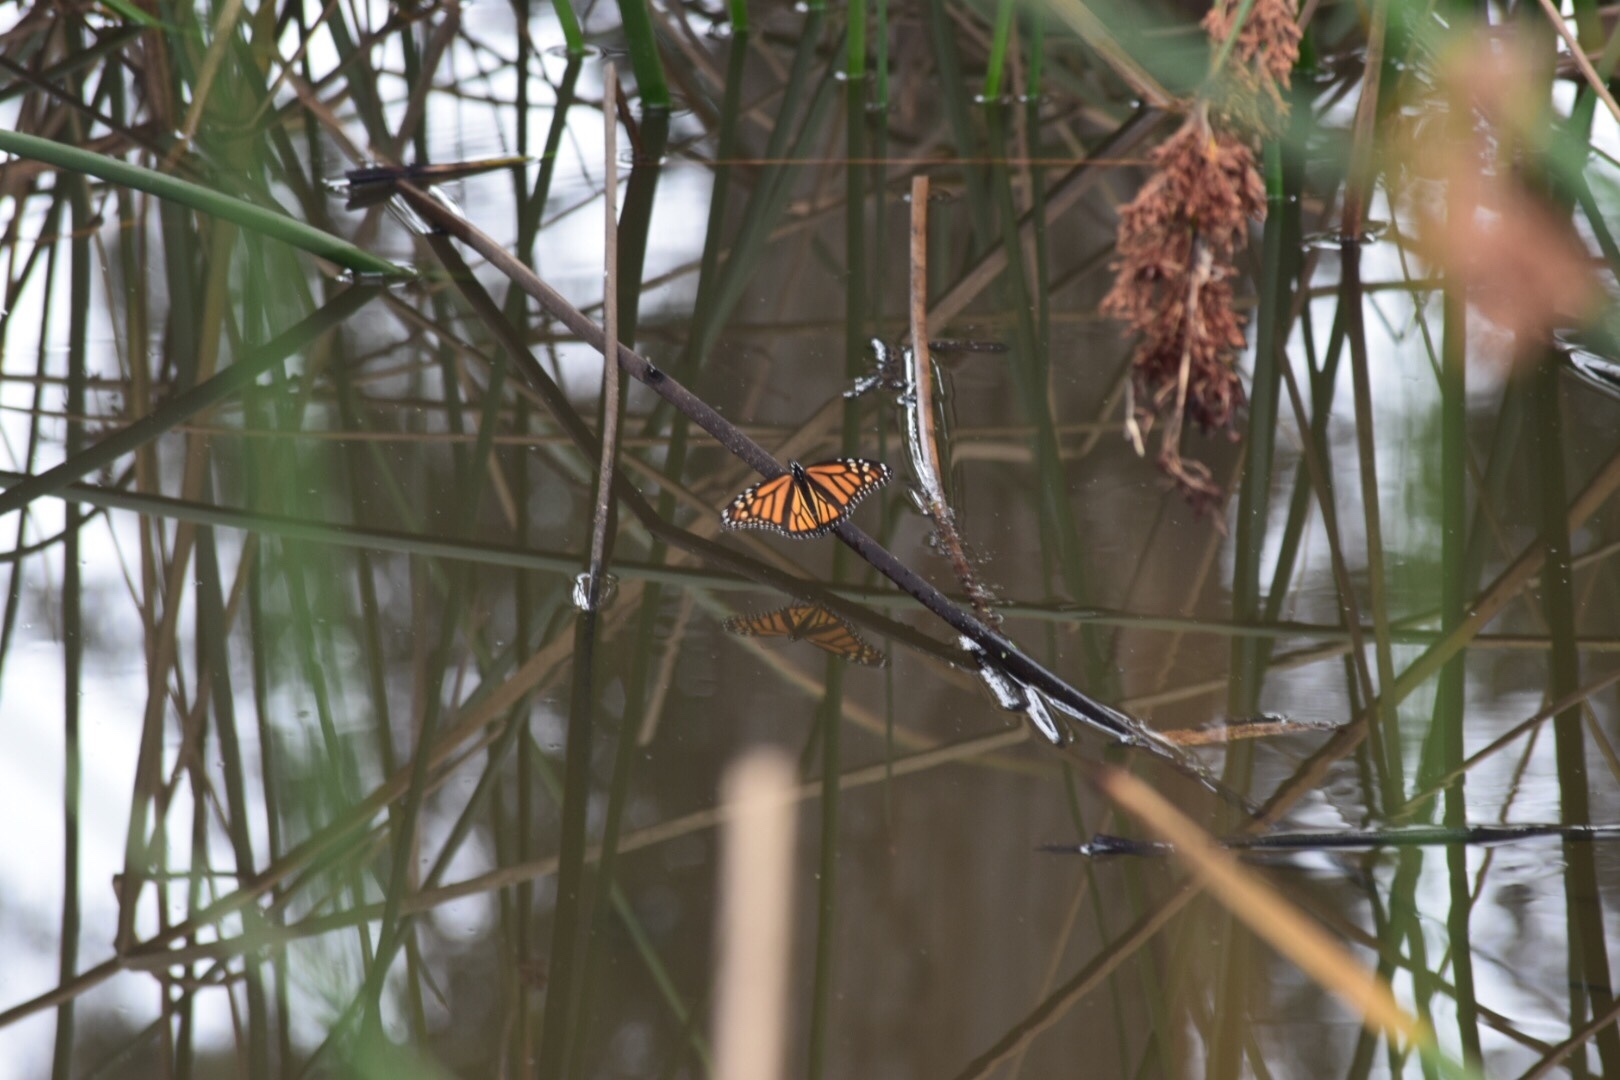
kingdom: Animalia
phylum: Arthropoda
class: Insecta
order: Lepidoptera
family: Nymphalidae
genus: Danaus
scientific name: Danaus plexippus
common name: Monarch
